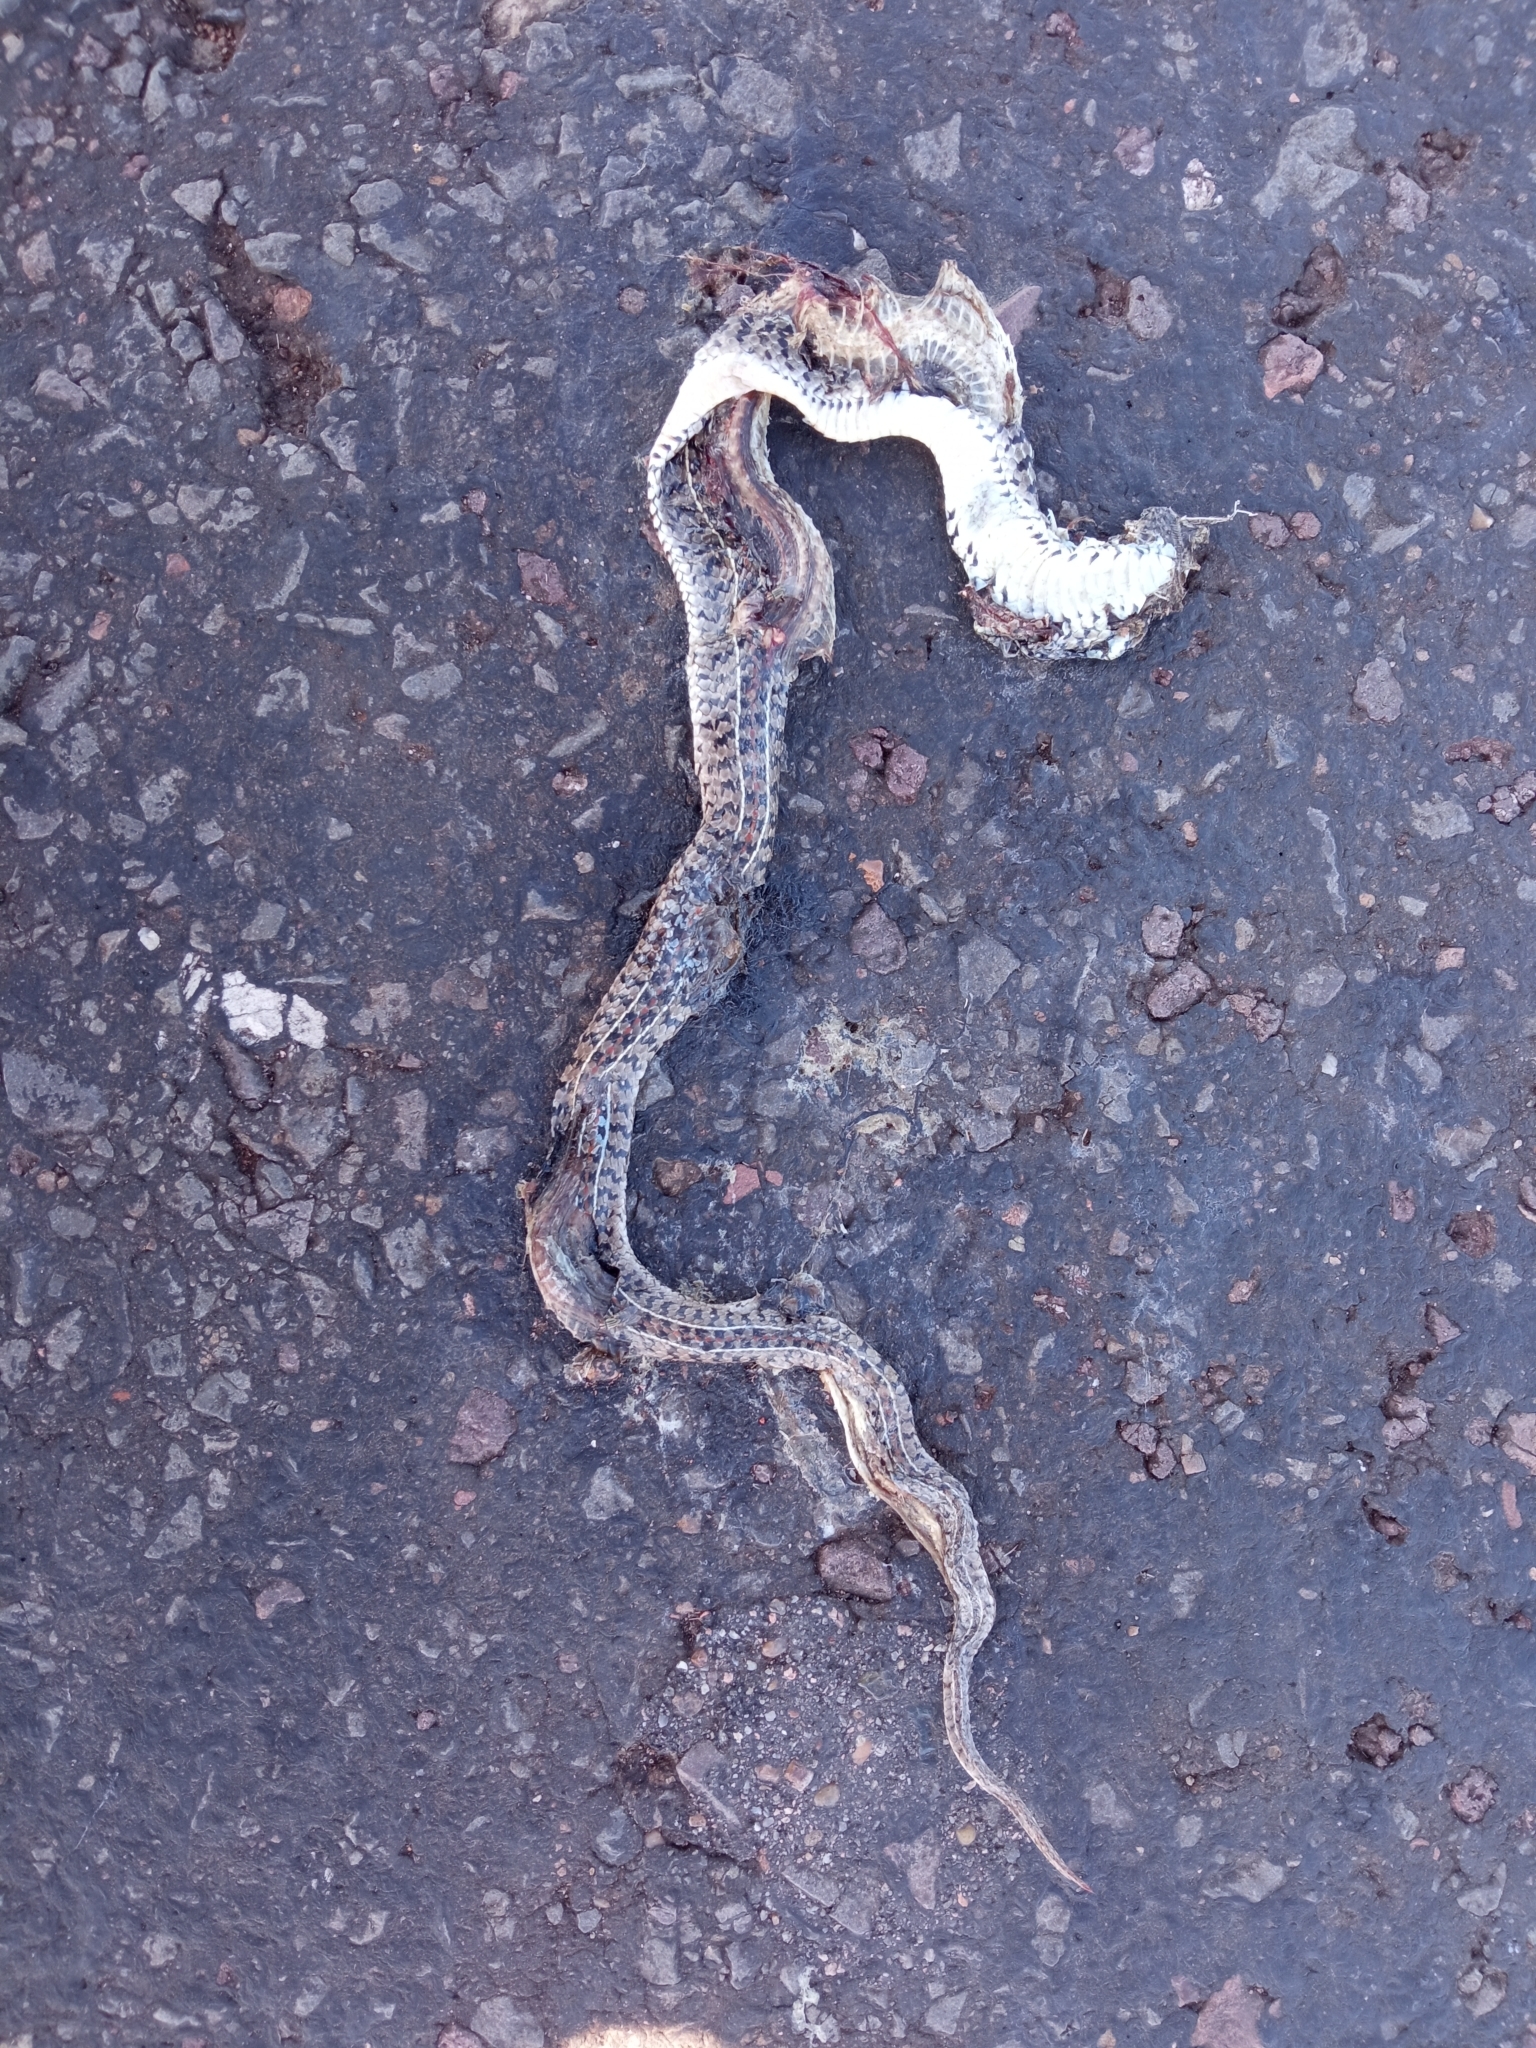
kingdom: Animalia
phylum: Chordata
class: Squamata
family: Colubridae
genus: Lygophis
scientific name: Lygophis anomalus
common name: English common name not available
